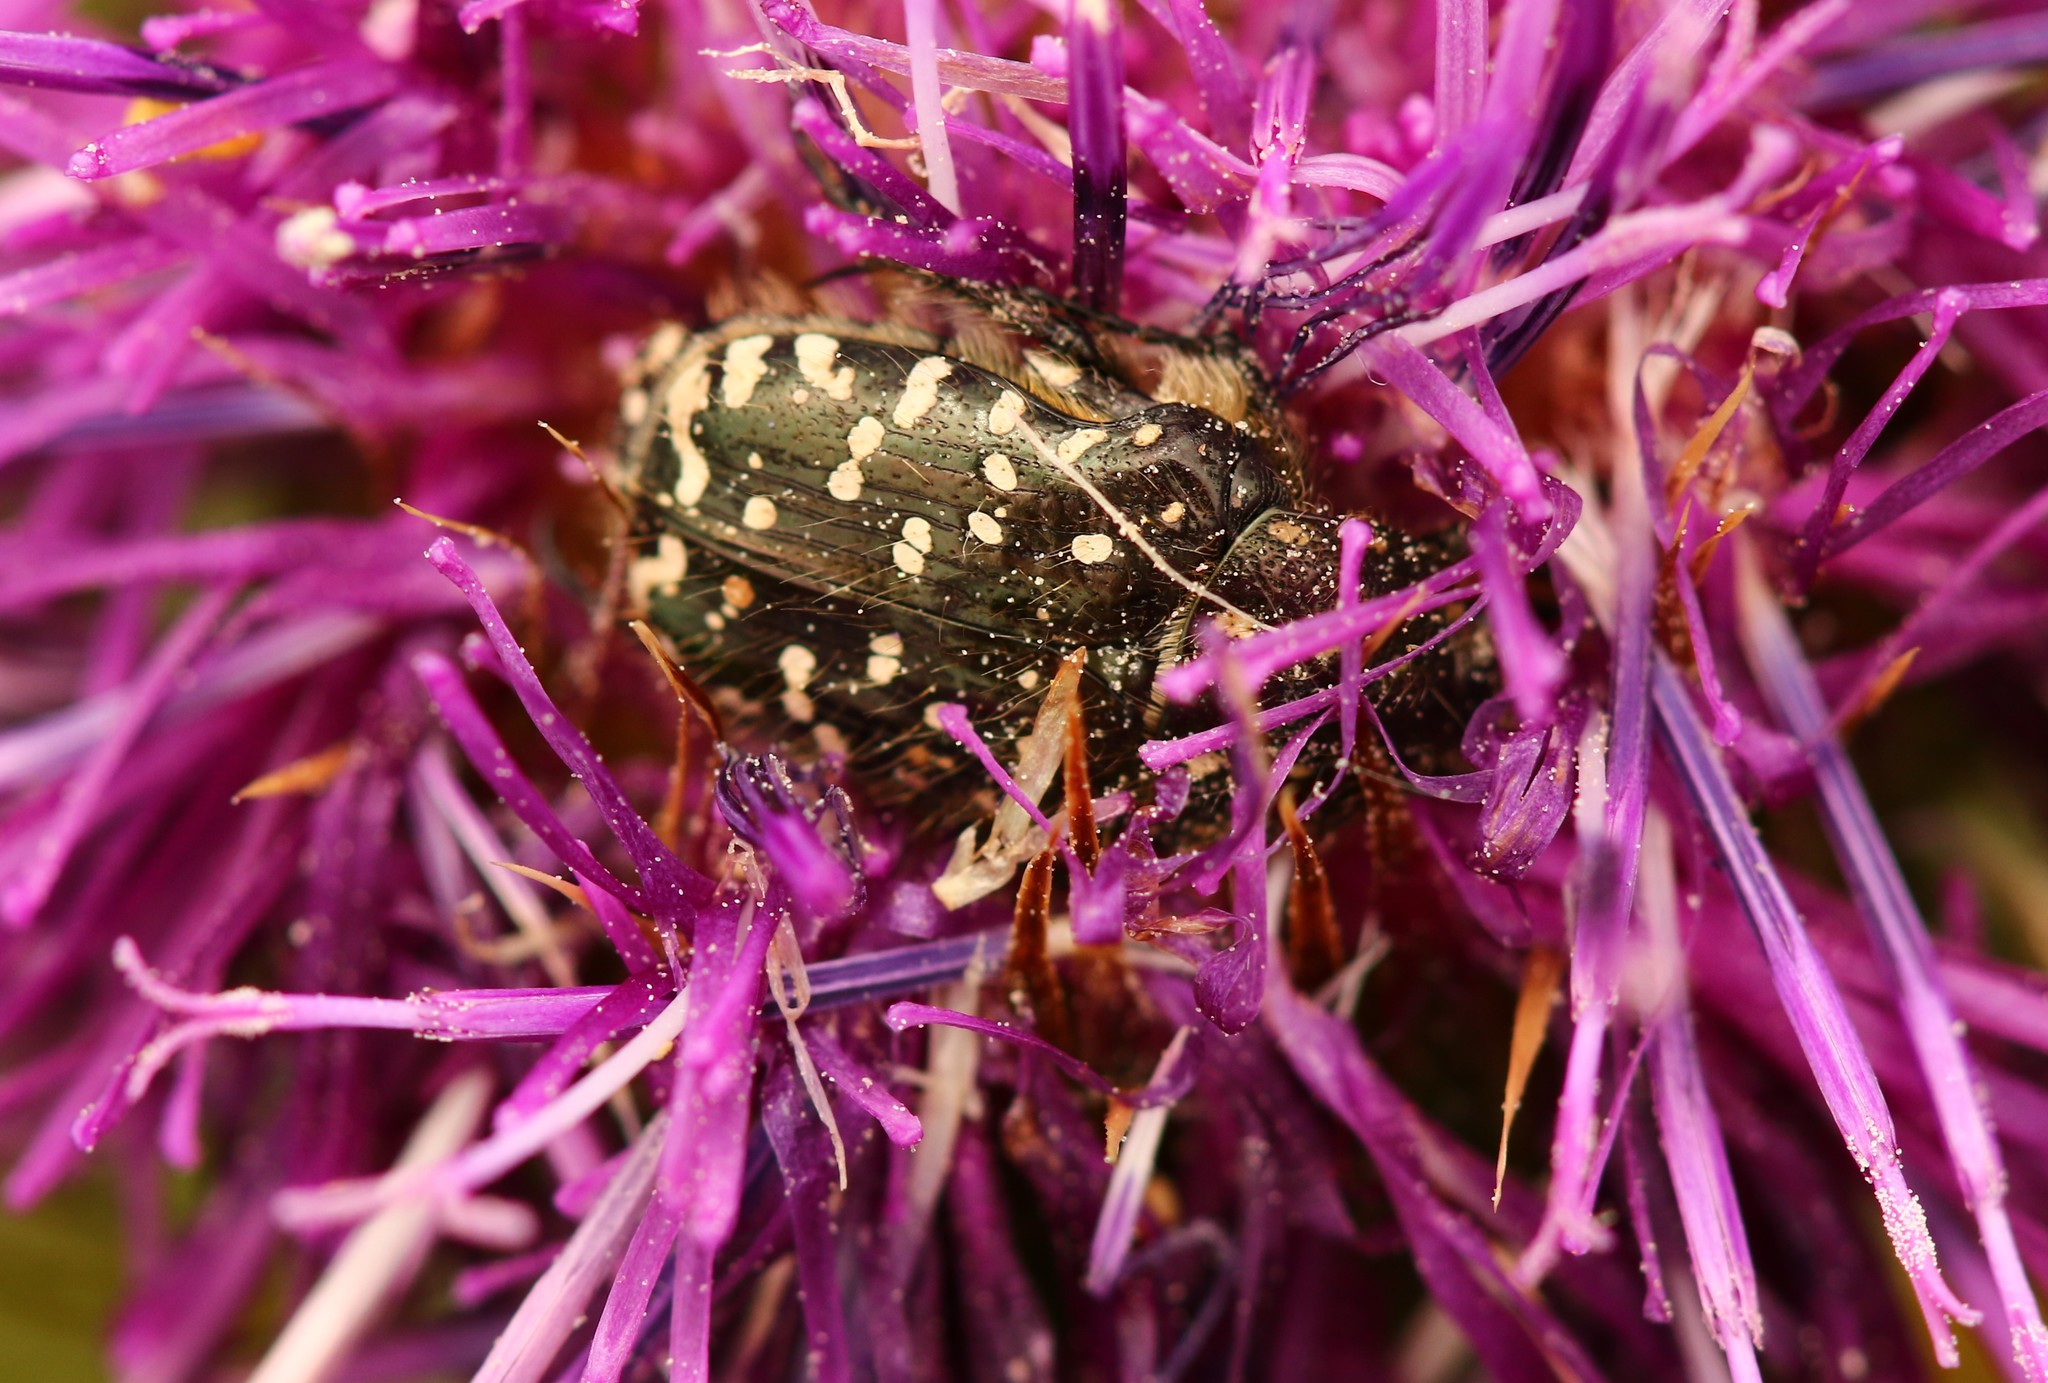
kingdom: Animalia
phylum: Arthropoda
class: Insecta
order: Coleoptera
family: Scarabaeidae
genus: Oxythyrea
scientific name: Oxythyrea funesta
